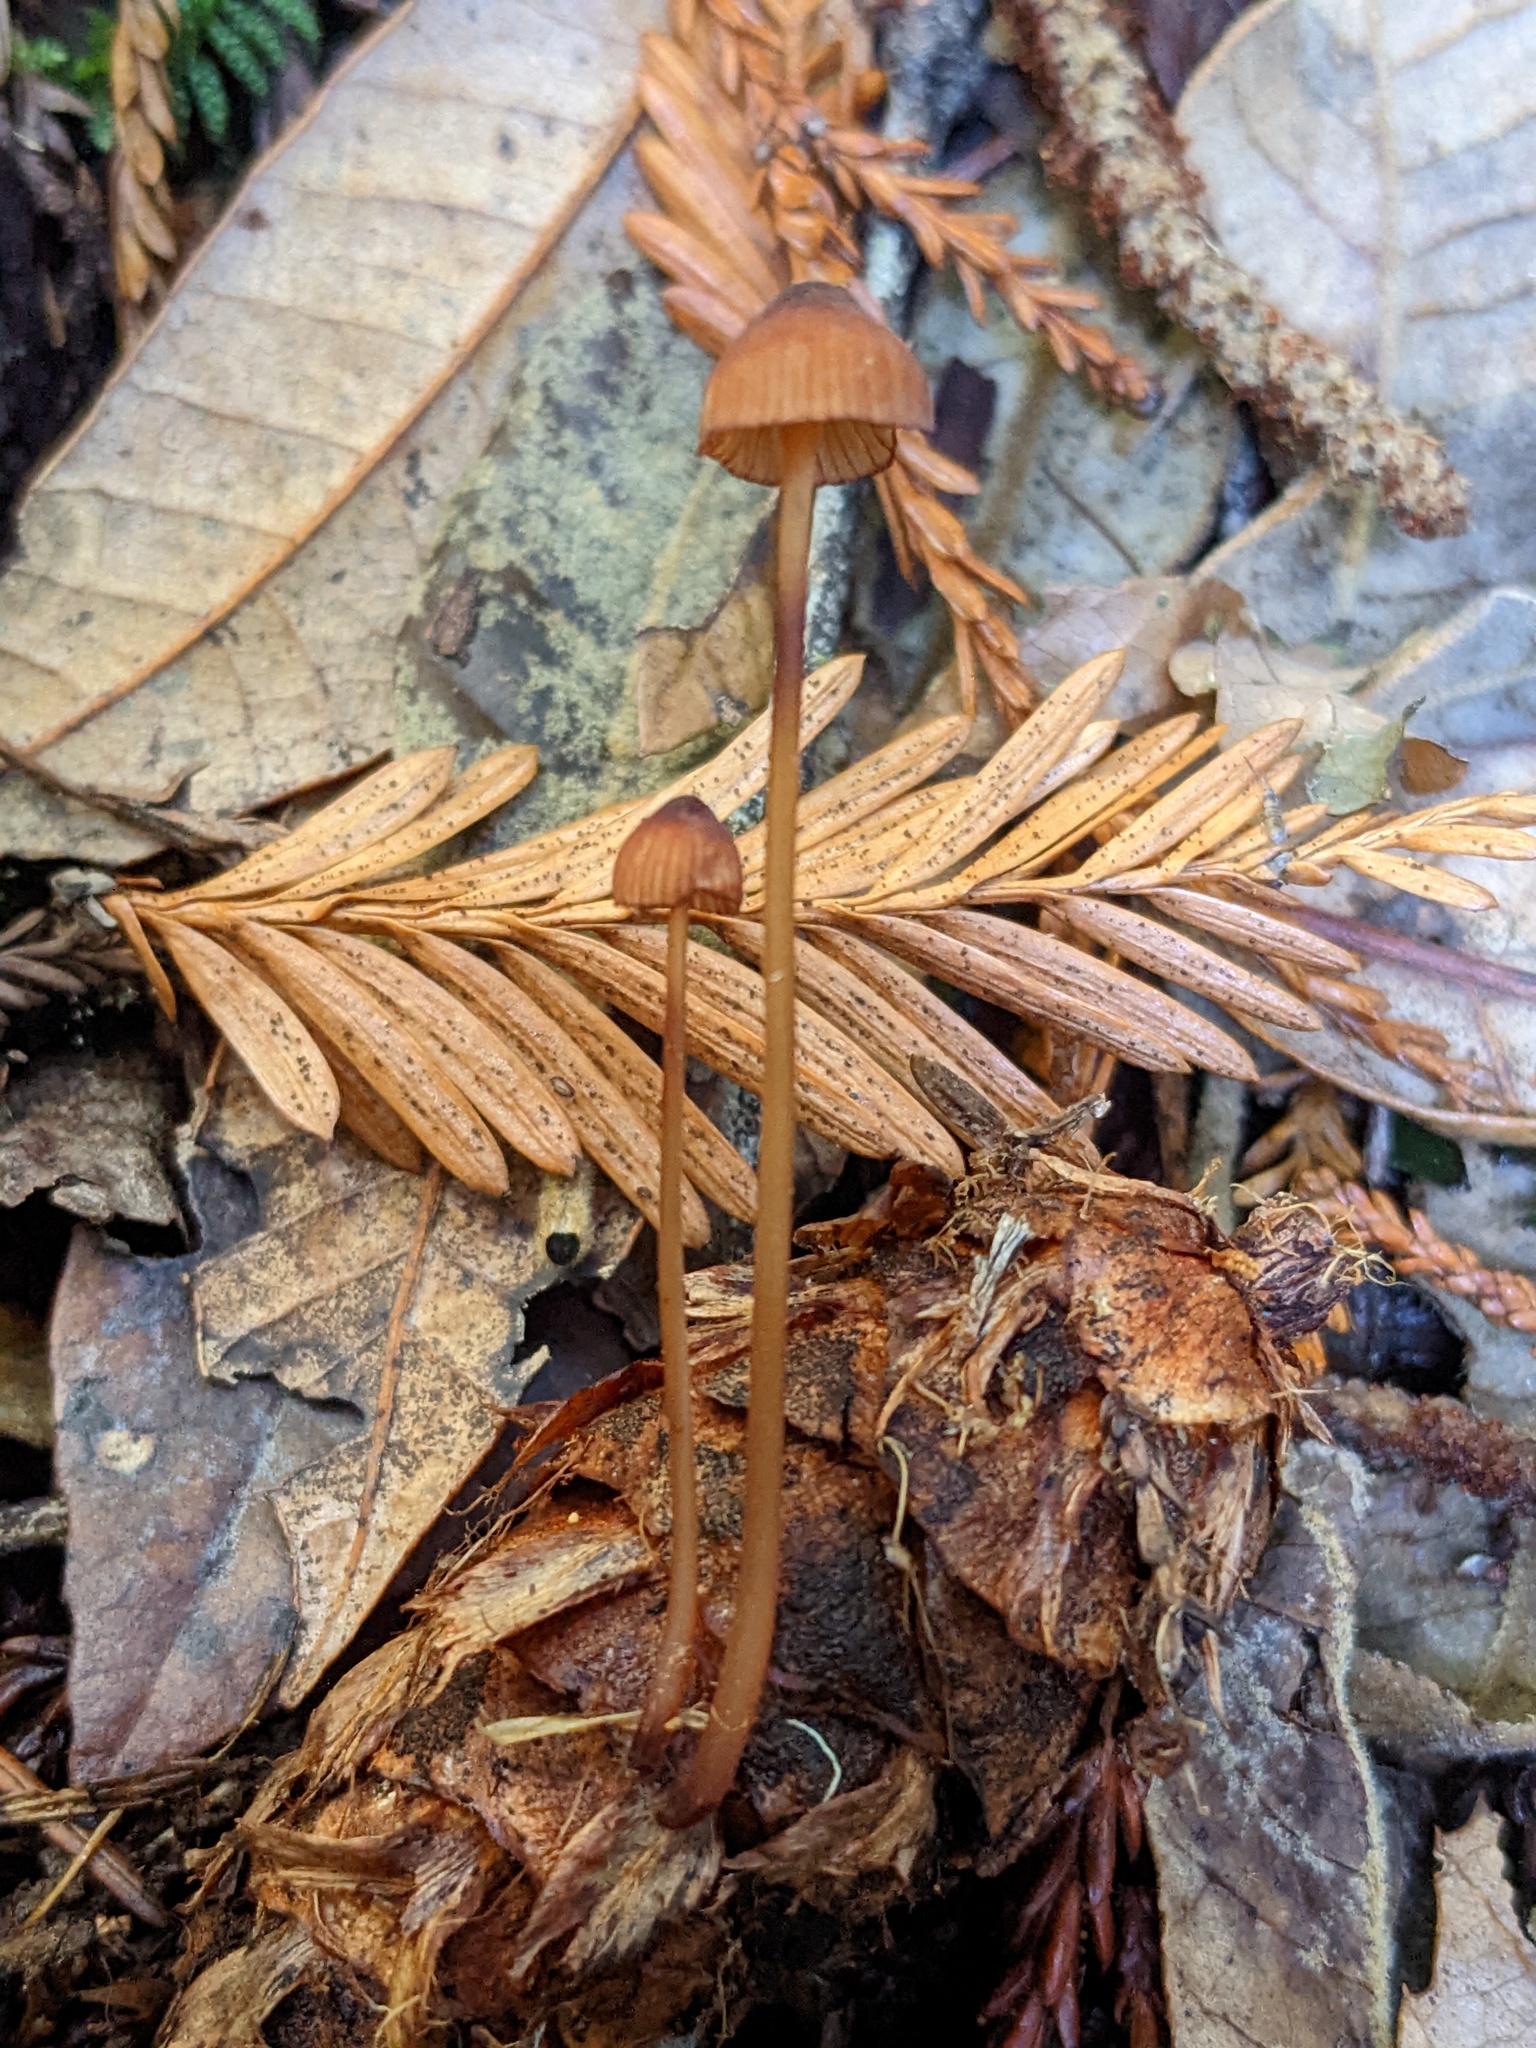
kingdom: Fungi
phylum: Basidiomycota
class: Agaricomycetes
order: Agaricales
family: Mycenaceae
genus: Mycena
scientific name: Mycena sanguinolenta
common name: Bleeding bonnet
